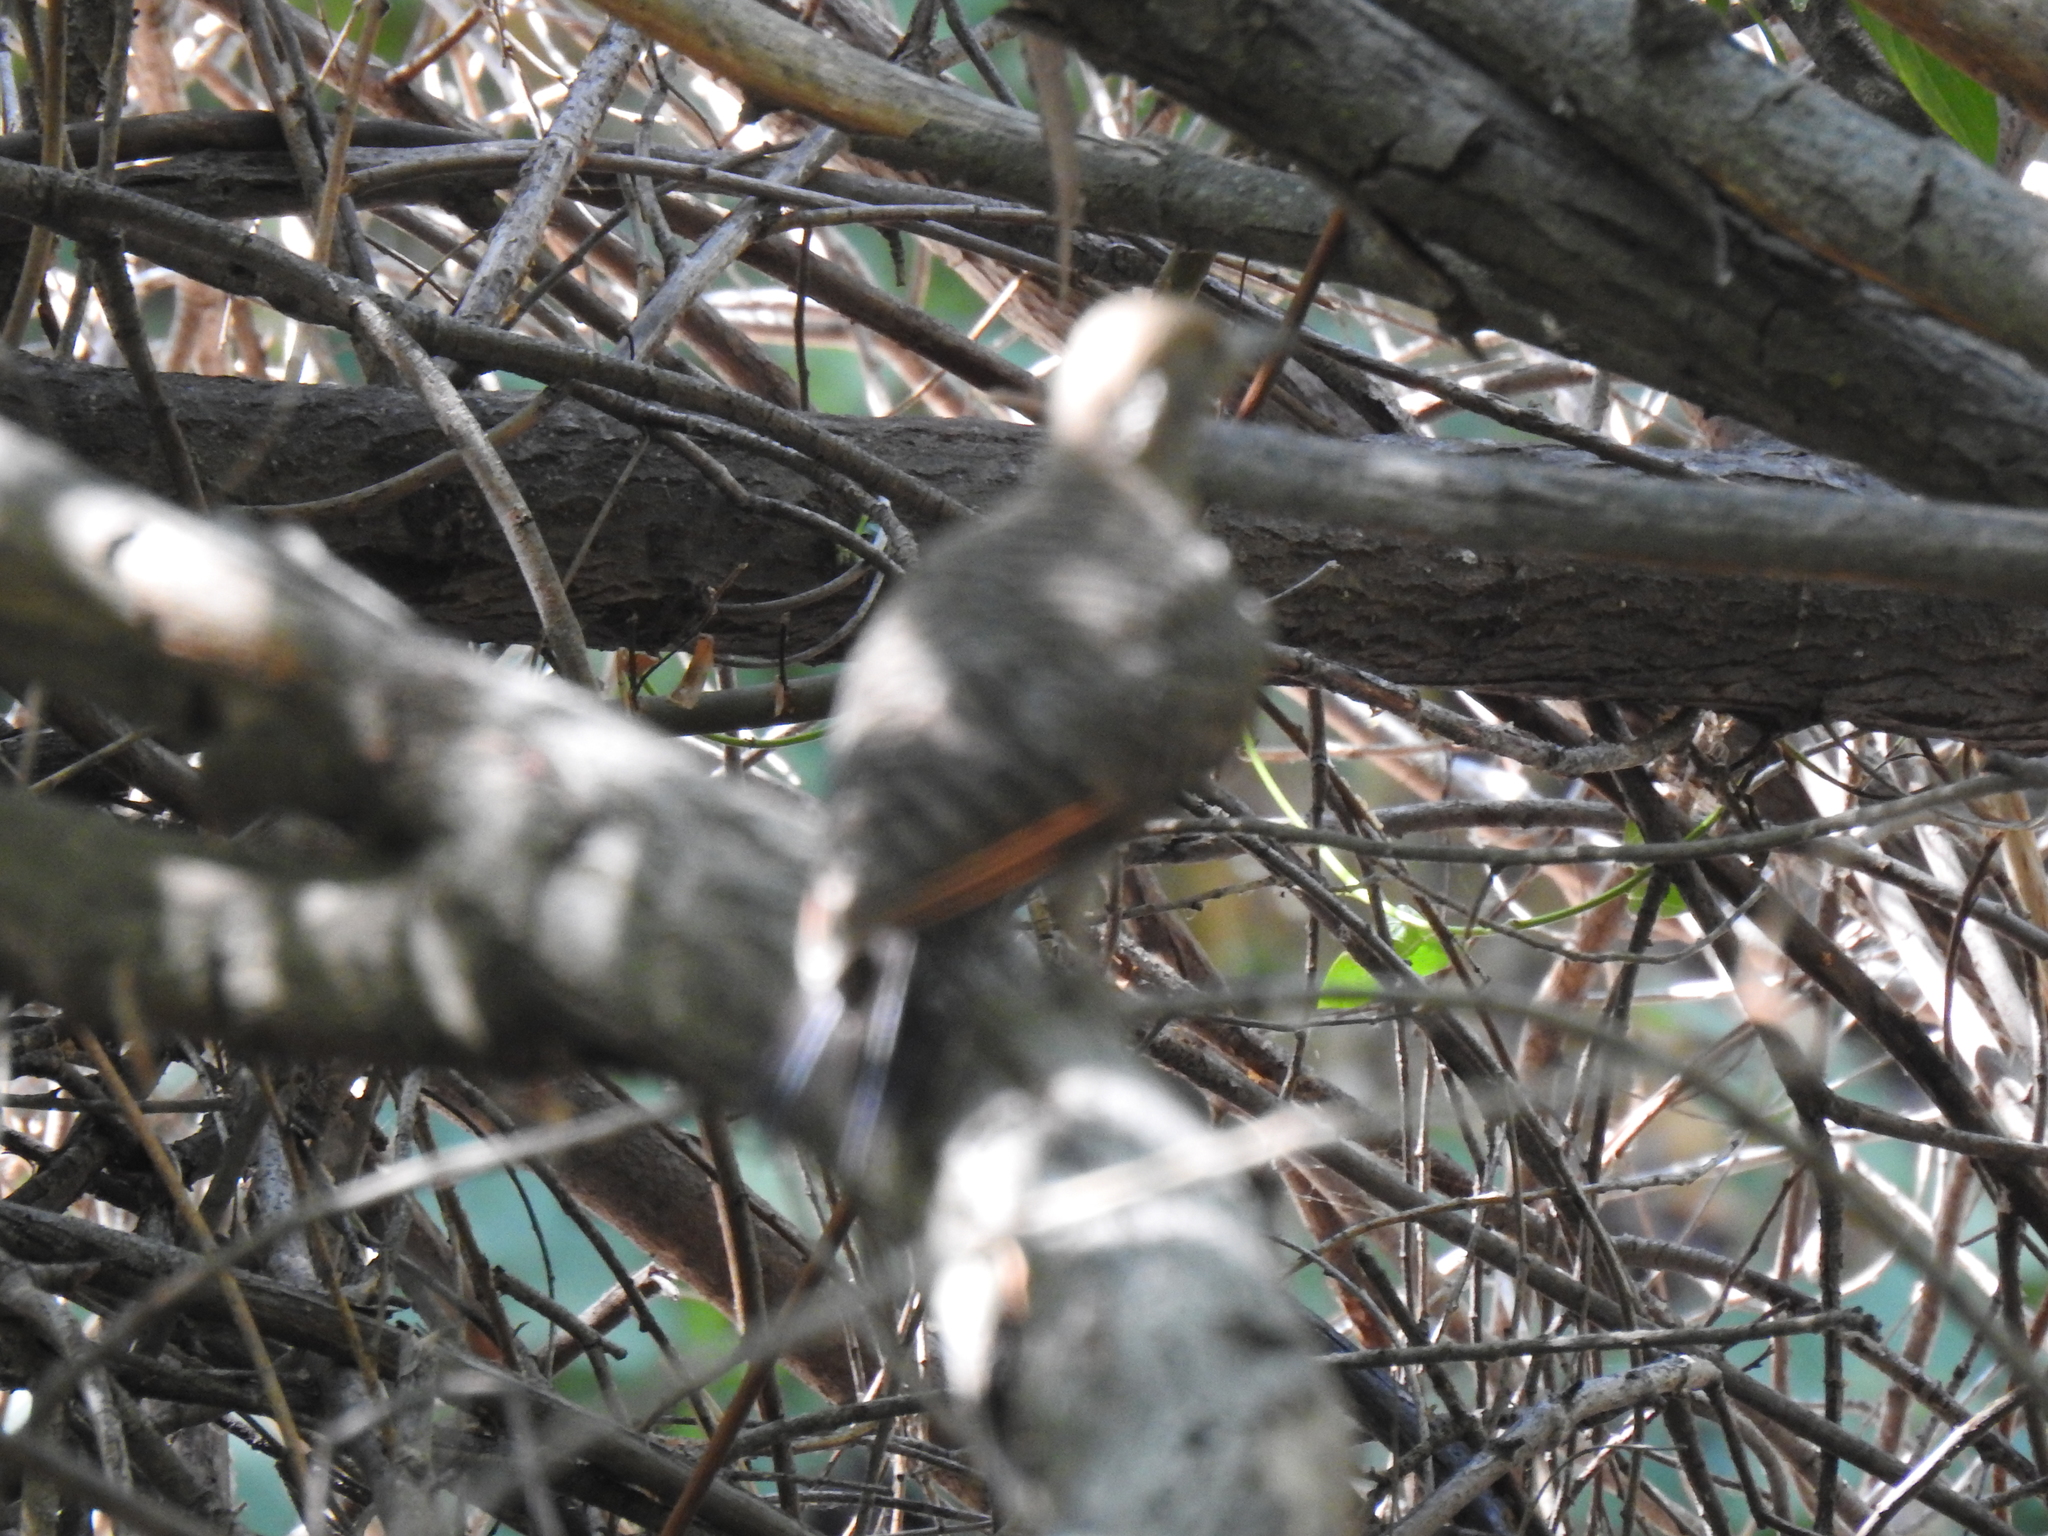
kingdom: Animalia
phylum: Chordata
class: Aves
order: Piciformes
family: Picidae
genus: Colaptes
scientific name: Colaptes auratus
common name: Northern flicker
